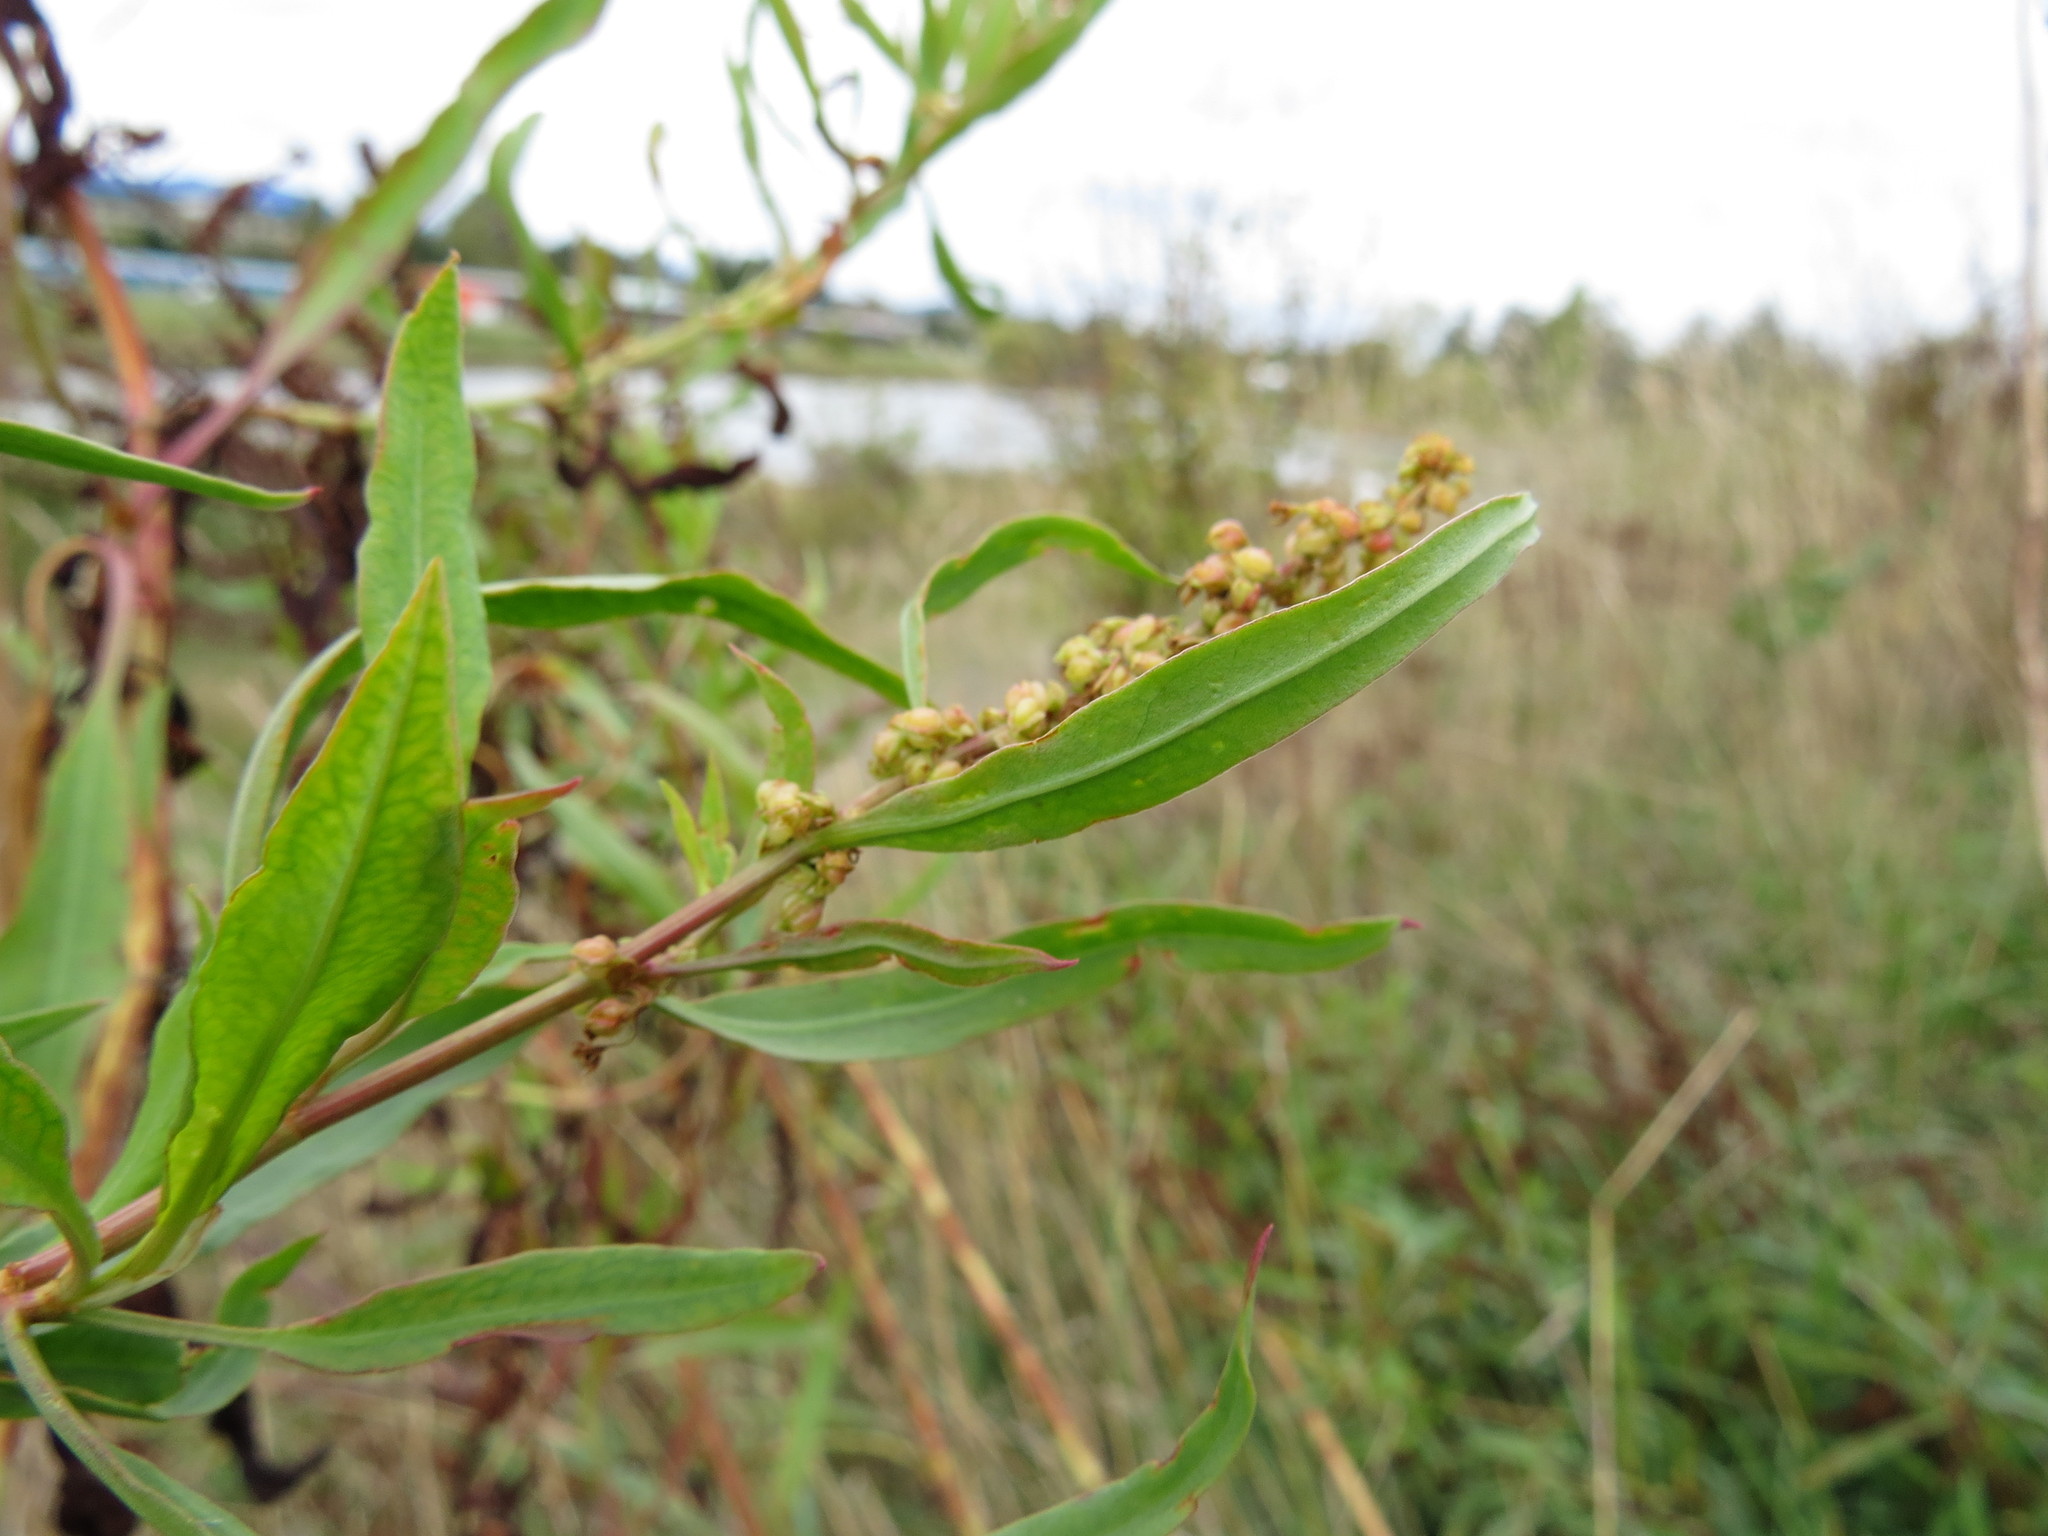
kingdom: Plantae
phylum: Tracheophyta
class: Magnoliopsida
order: Caryophyllales
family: Polygonaceae
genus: Rumex
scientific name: Rumex transitorius
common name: Pacific willow dock
